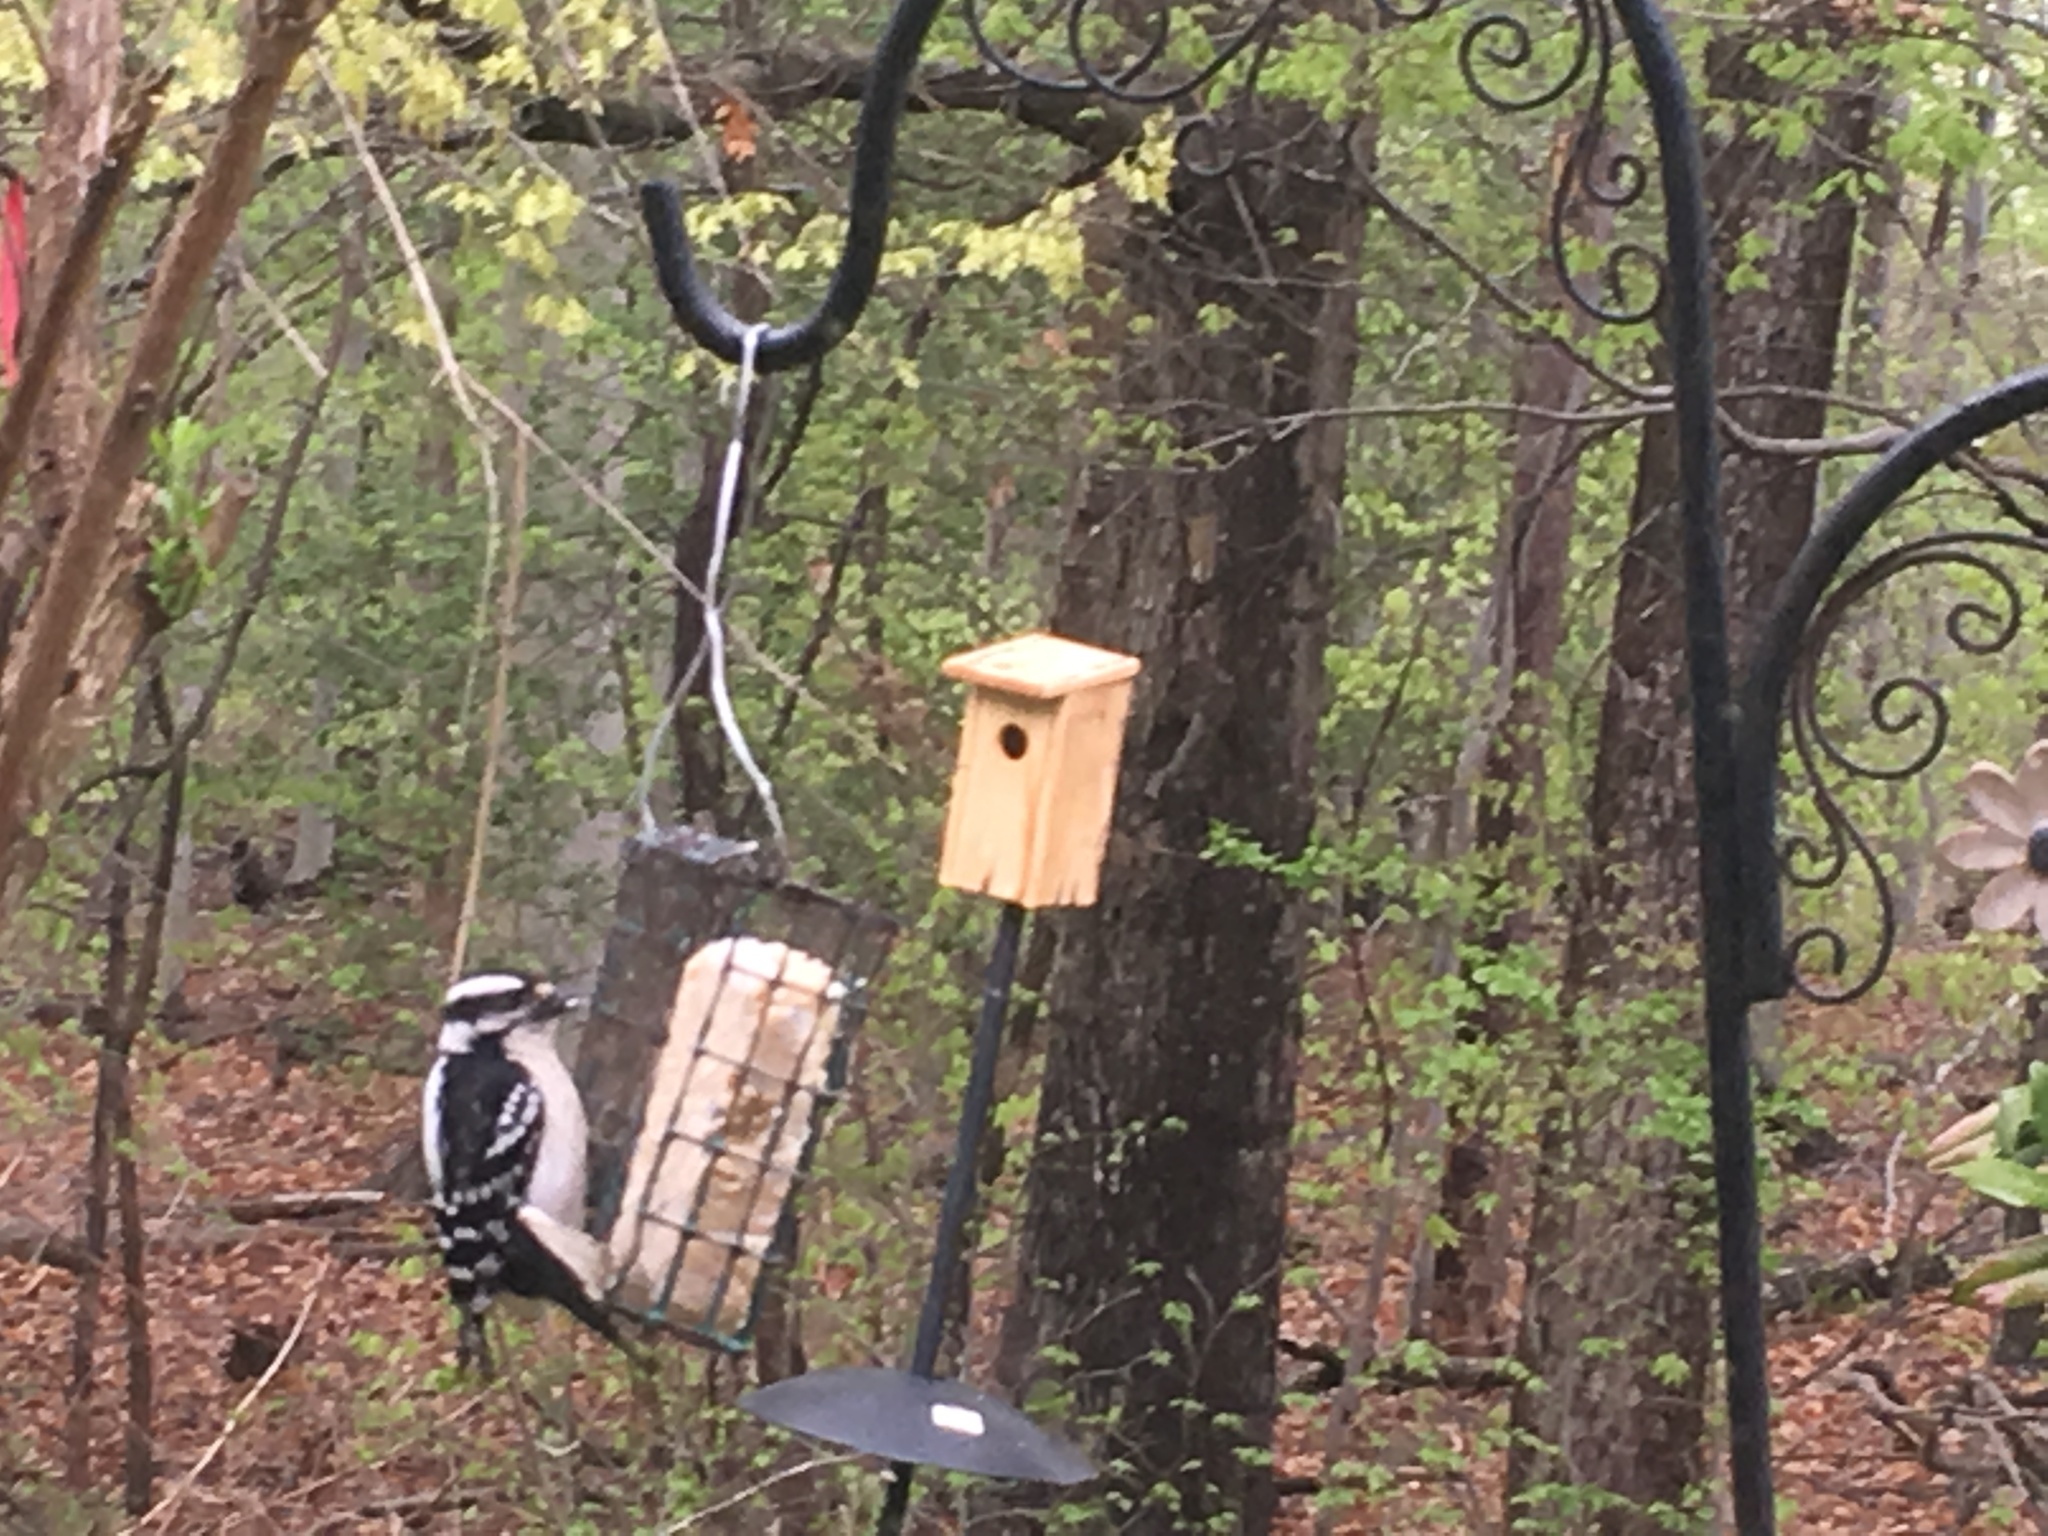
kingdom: Animalia
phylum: Chordata
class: Aves
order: Piciformes
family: Picidae
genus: Dryobates
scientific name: Dryobates pubescens
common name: Downy woodpecker
